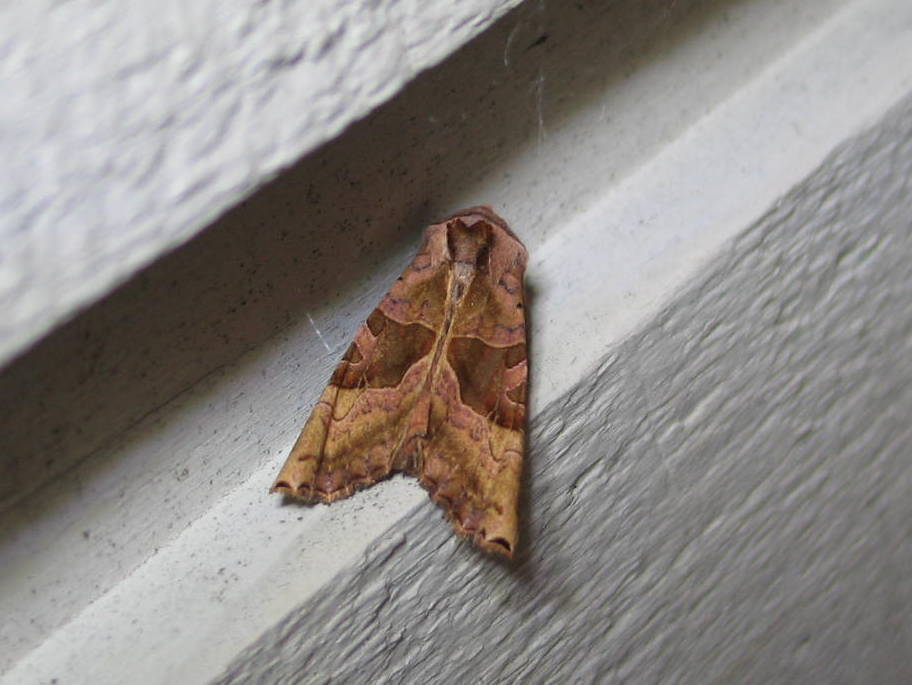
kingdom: Animalia
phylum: Arthropoda
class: Insecta
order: Lepidoptera
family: Noctuidae
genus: Phlogophora
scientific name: Phlogophora periculosa
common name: Brown angle shades
